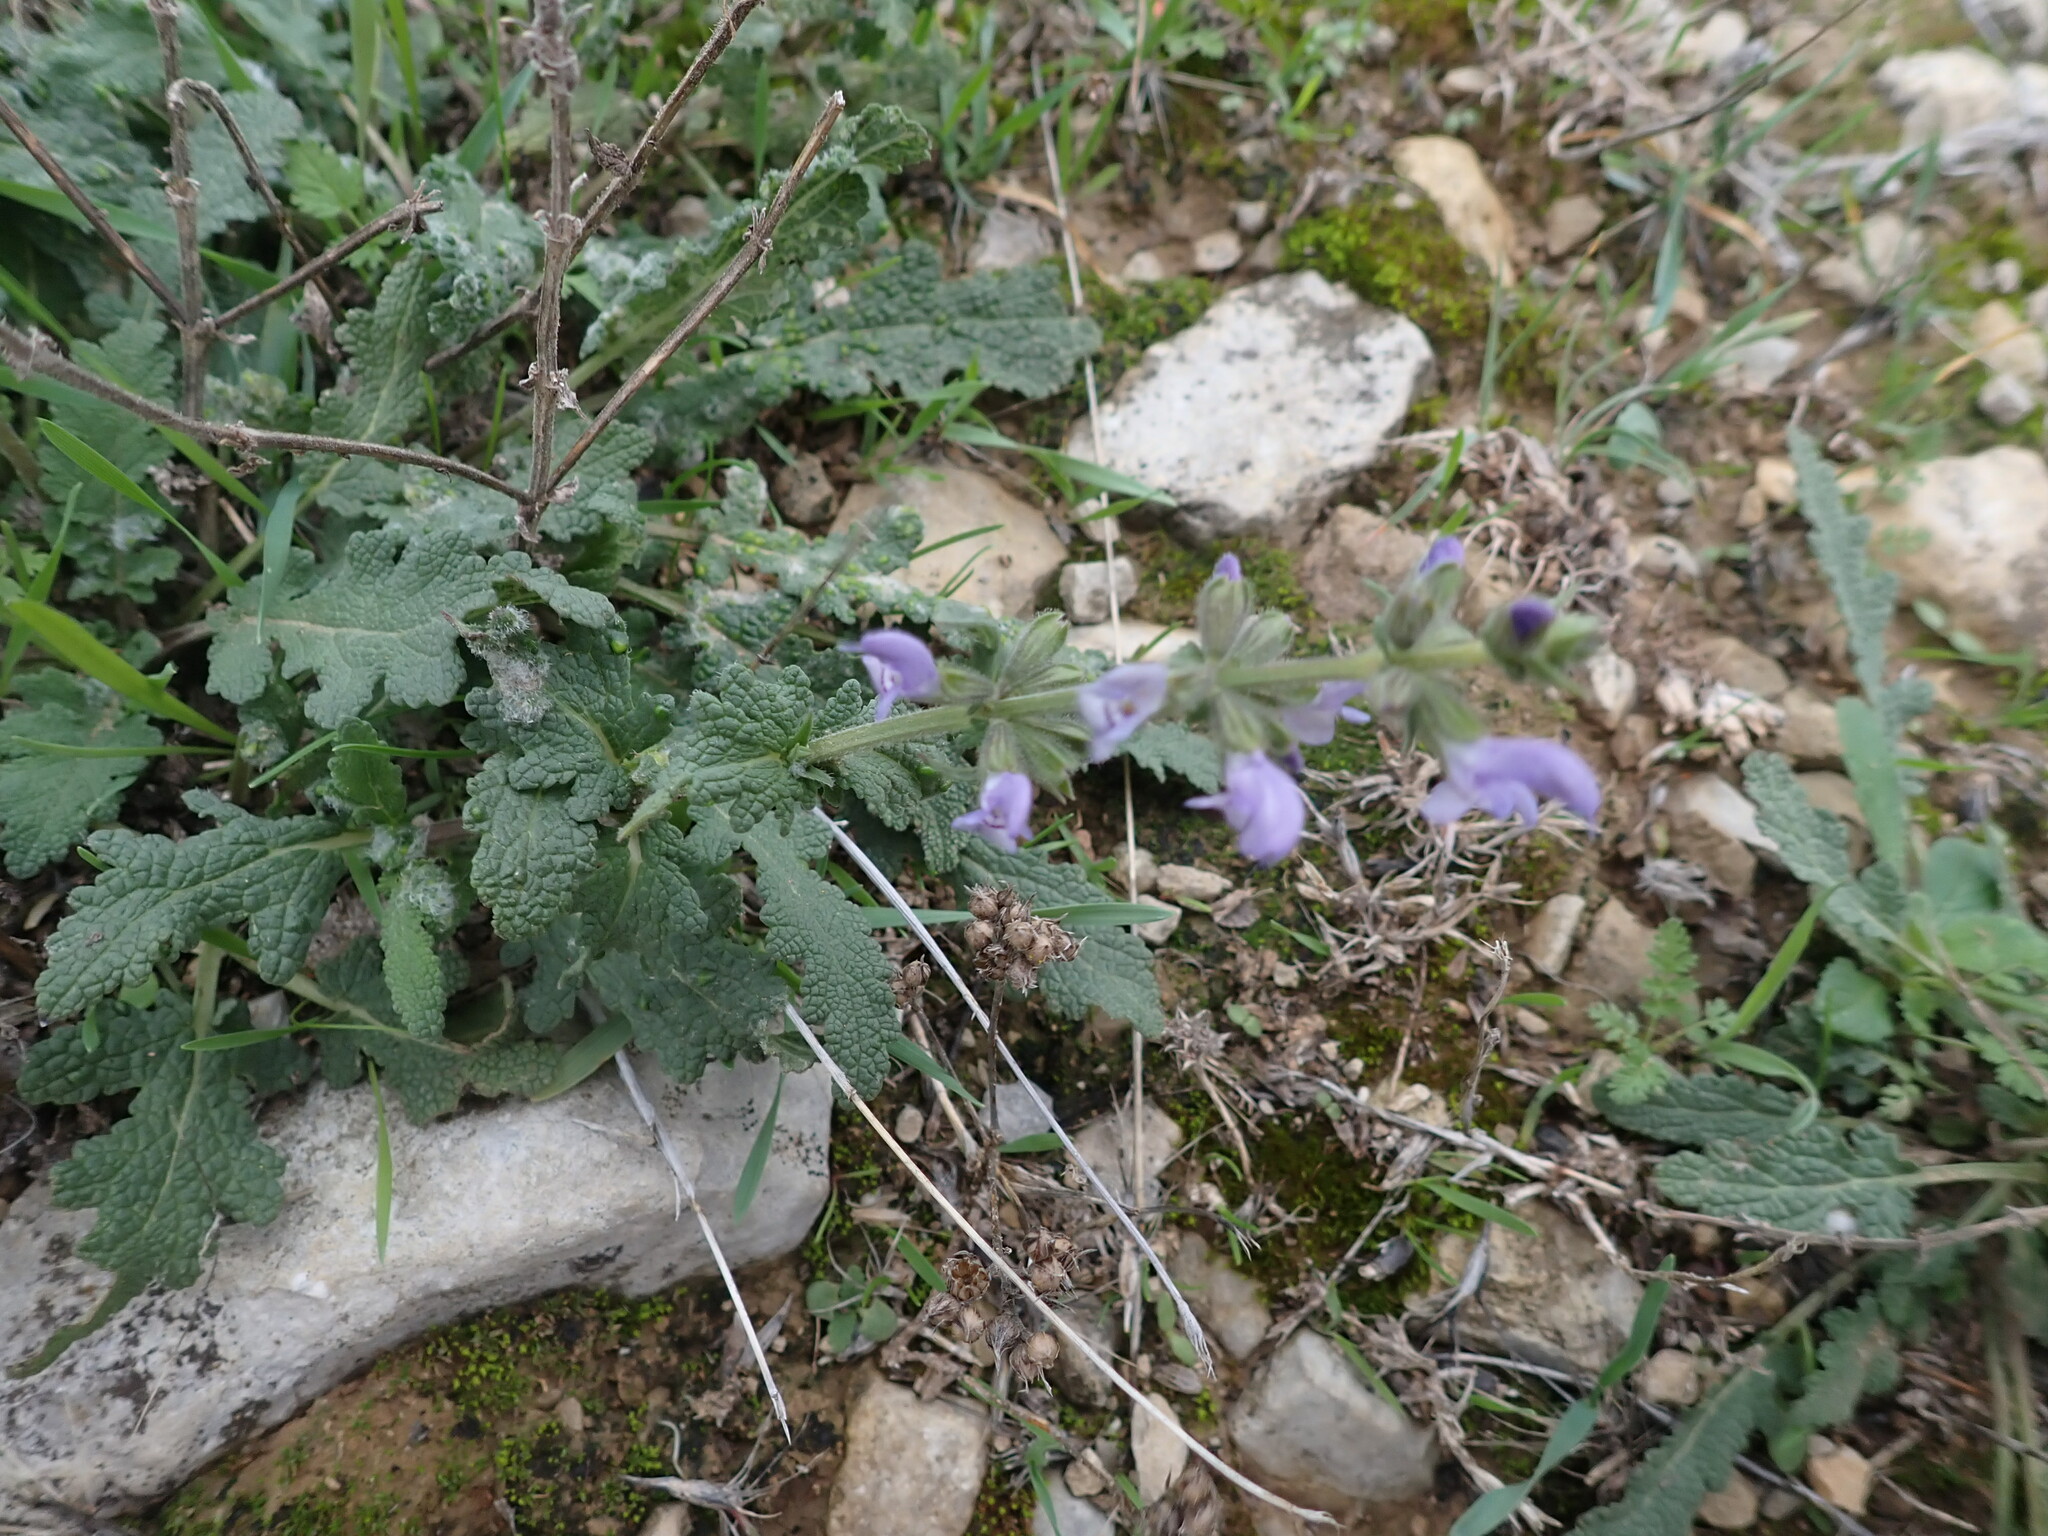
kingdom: Plantae
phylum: Tracheophyta
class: Magnoliopsida
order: Lamiales
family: Lamiaceae
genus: Salvia
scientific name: Salvia verbenaca
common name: Wild clary
